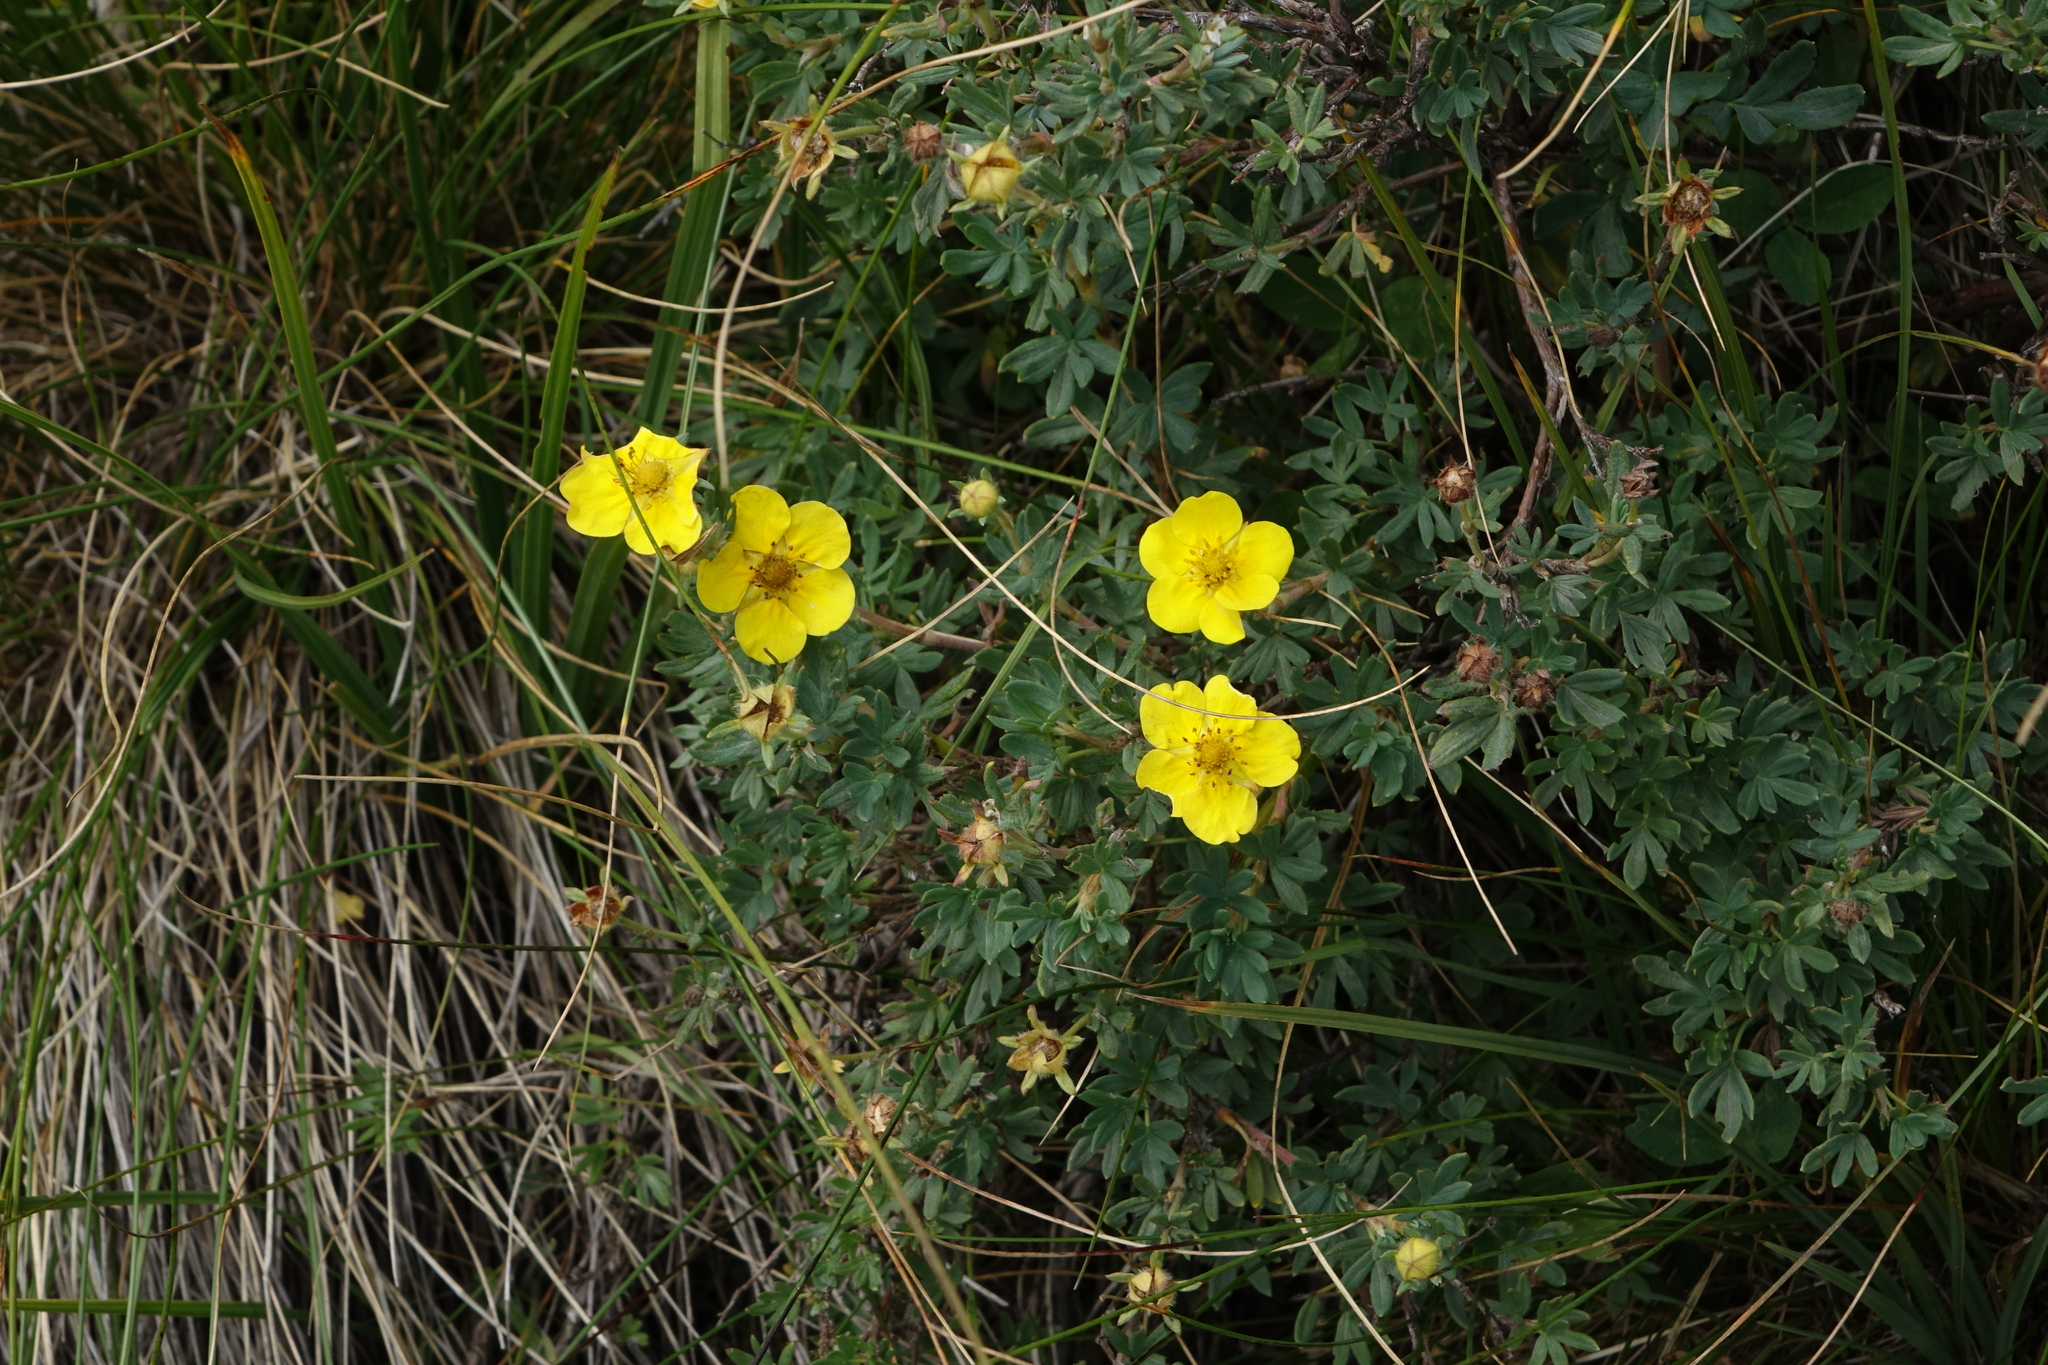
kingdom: Plantae
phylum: Tracheophyta
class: Magnoliopsida
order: Rosales
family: Rosaceae
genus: Dasiphora
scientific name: Dasiphora fruticosa
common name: Shrubby cinquefoil
